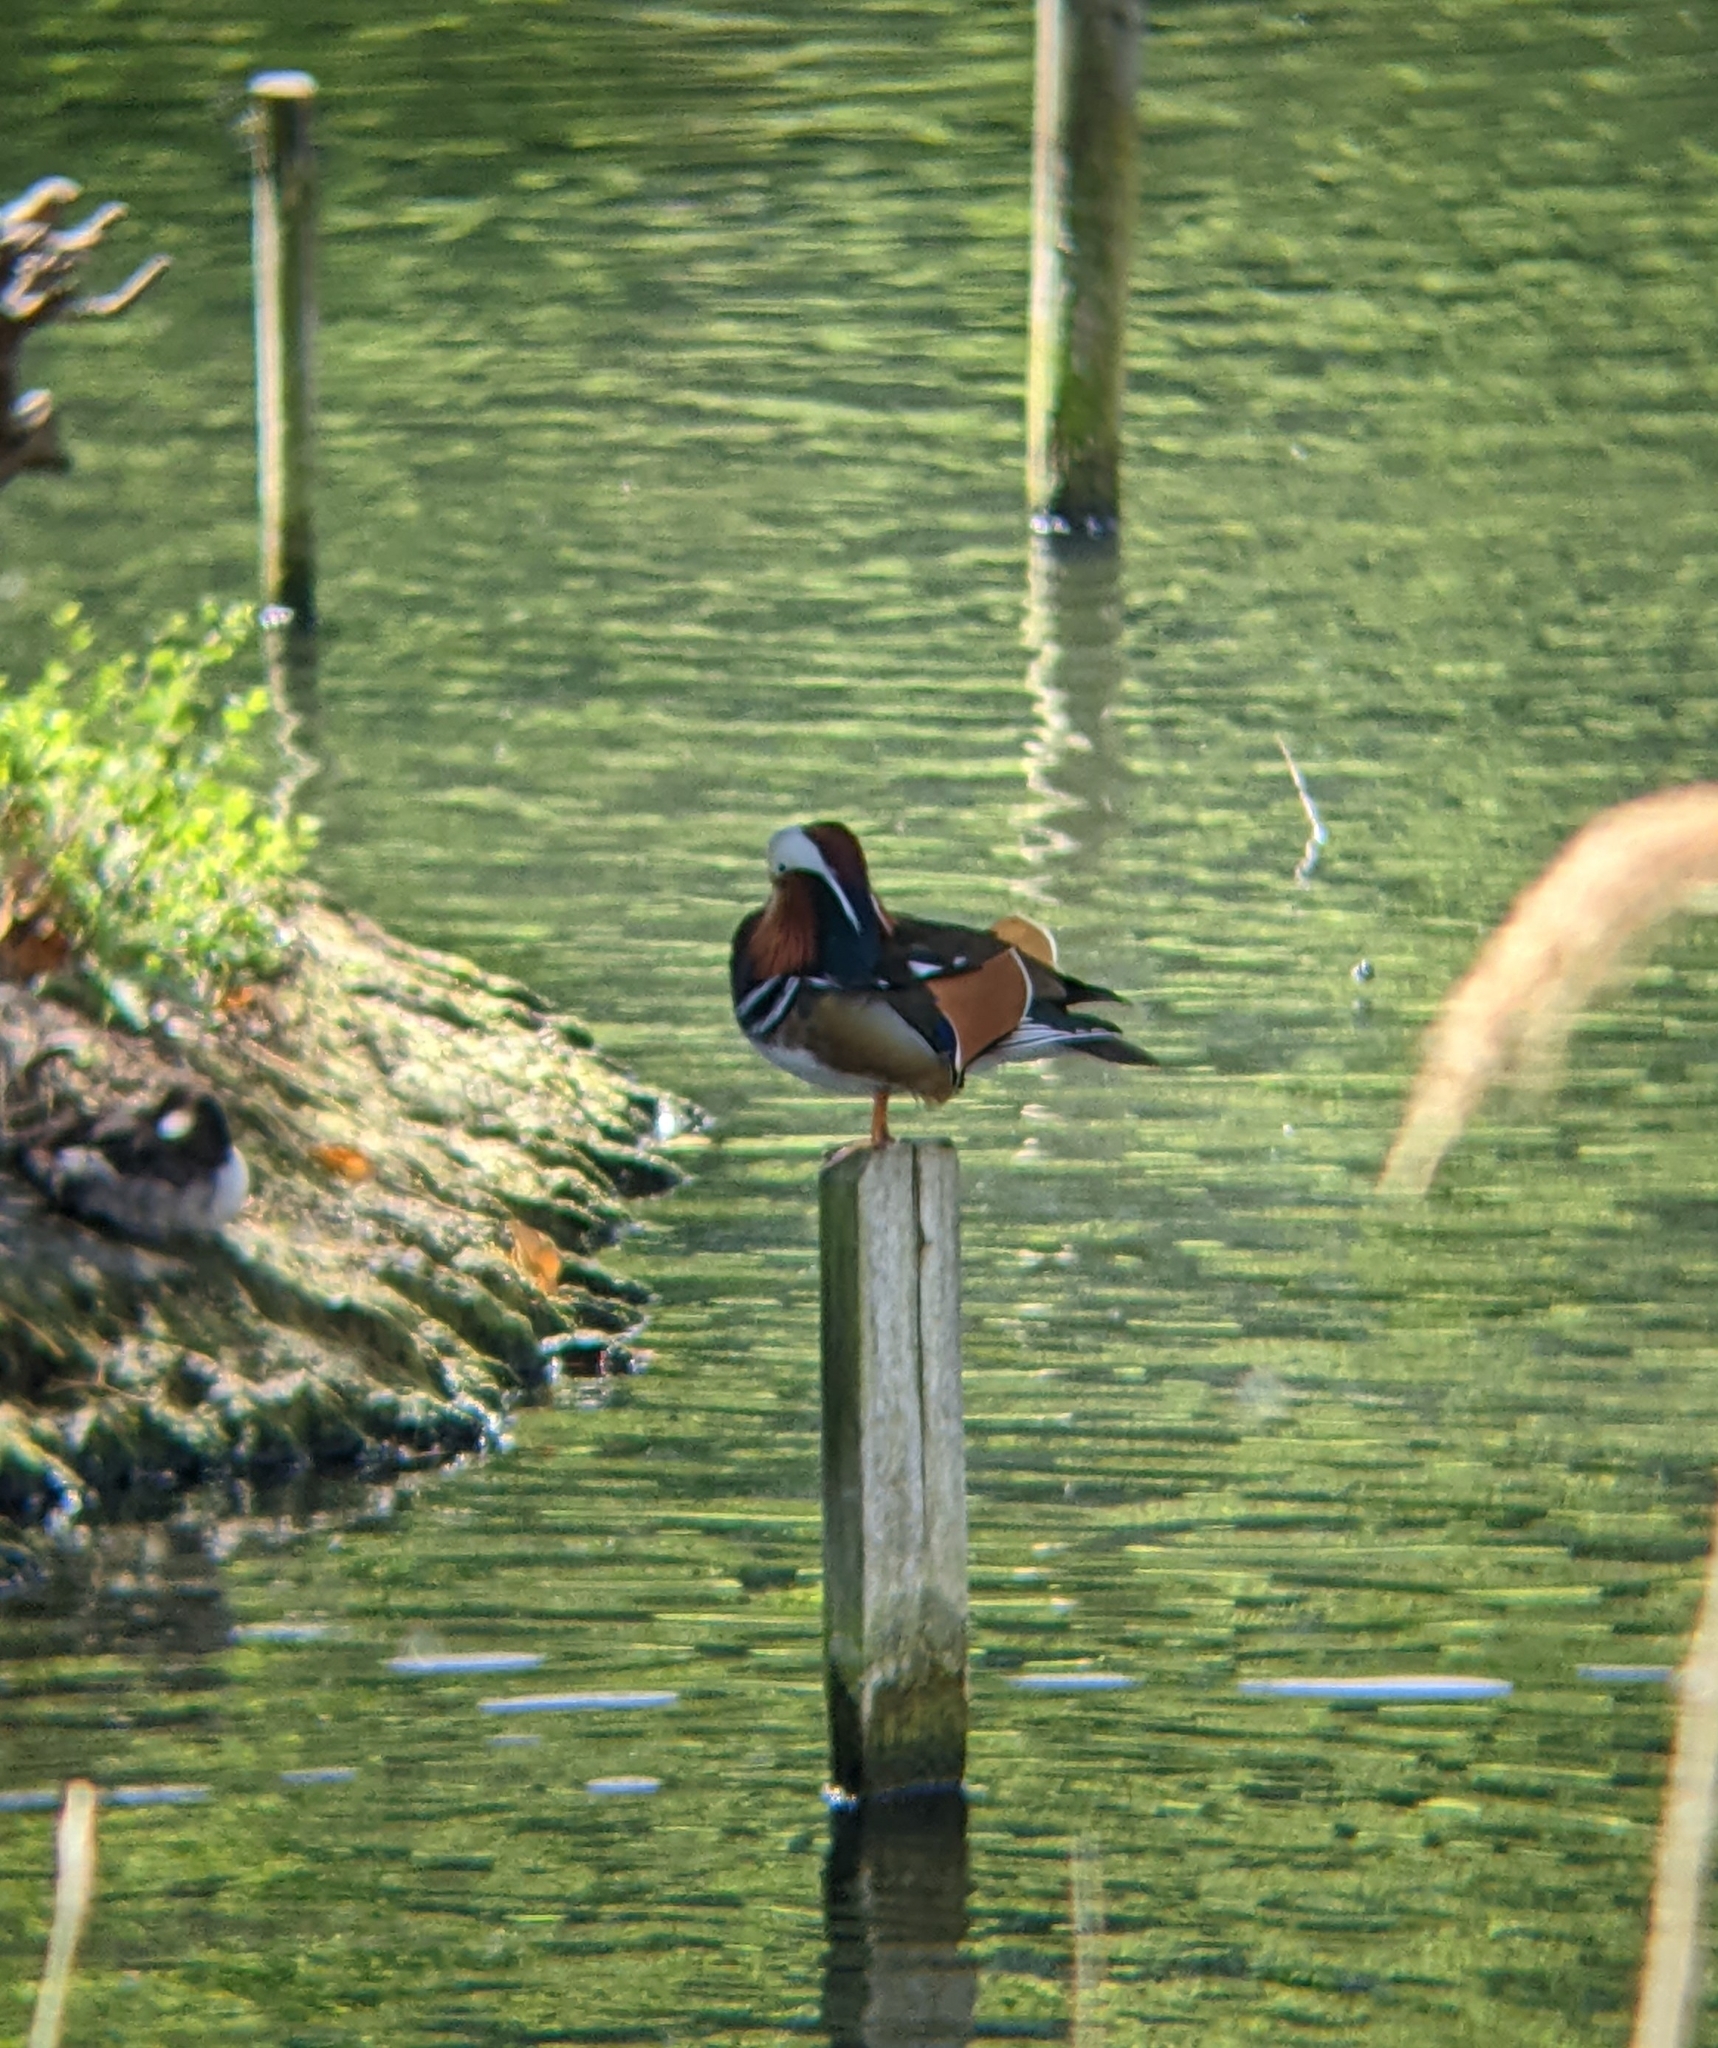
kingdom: Animalia
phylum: Chordata
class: Aves
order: Anseriformes
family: Anatidae
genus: Aix
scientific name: Aix galericulata
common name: Mandarin duck
